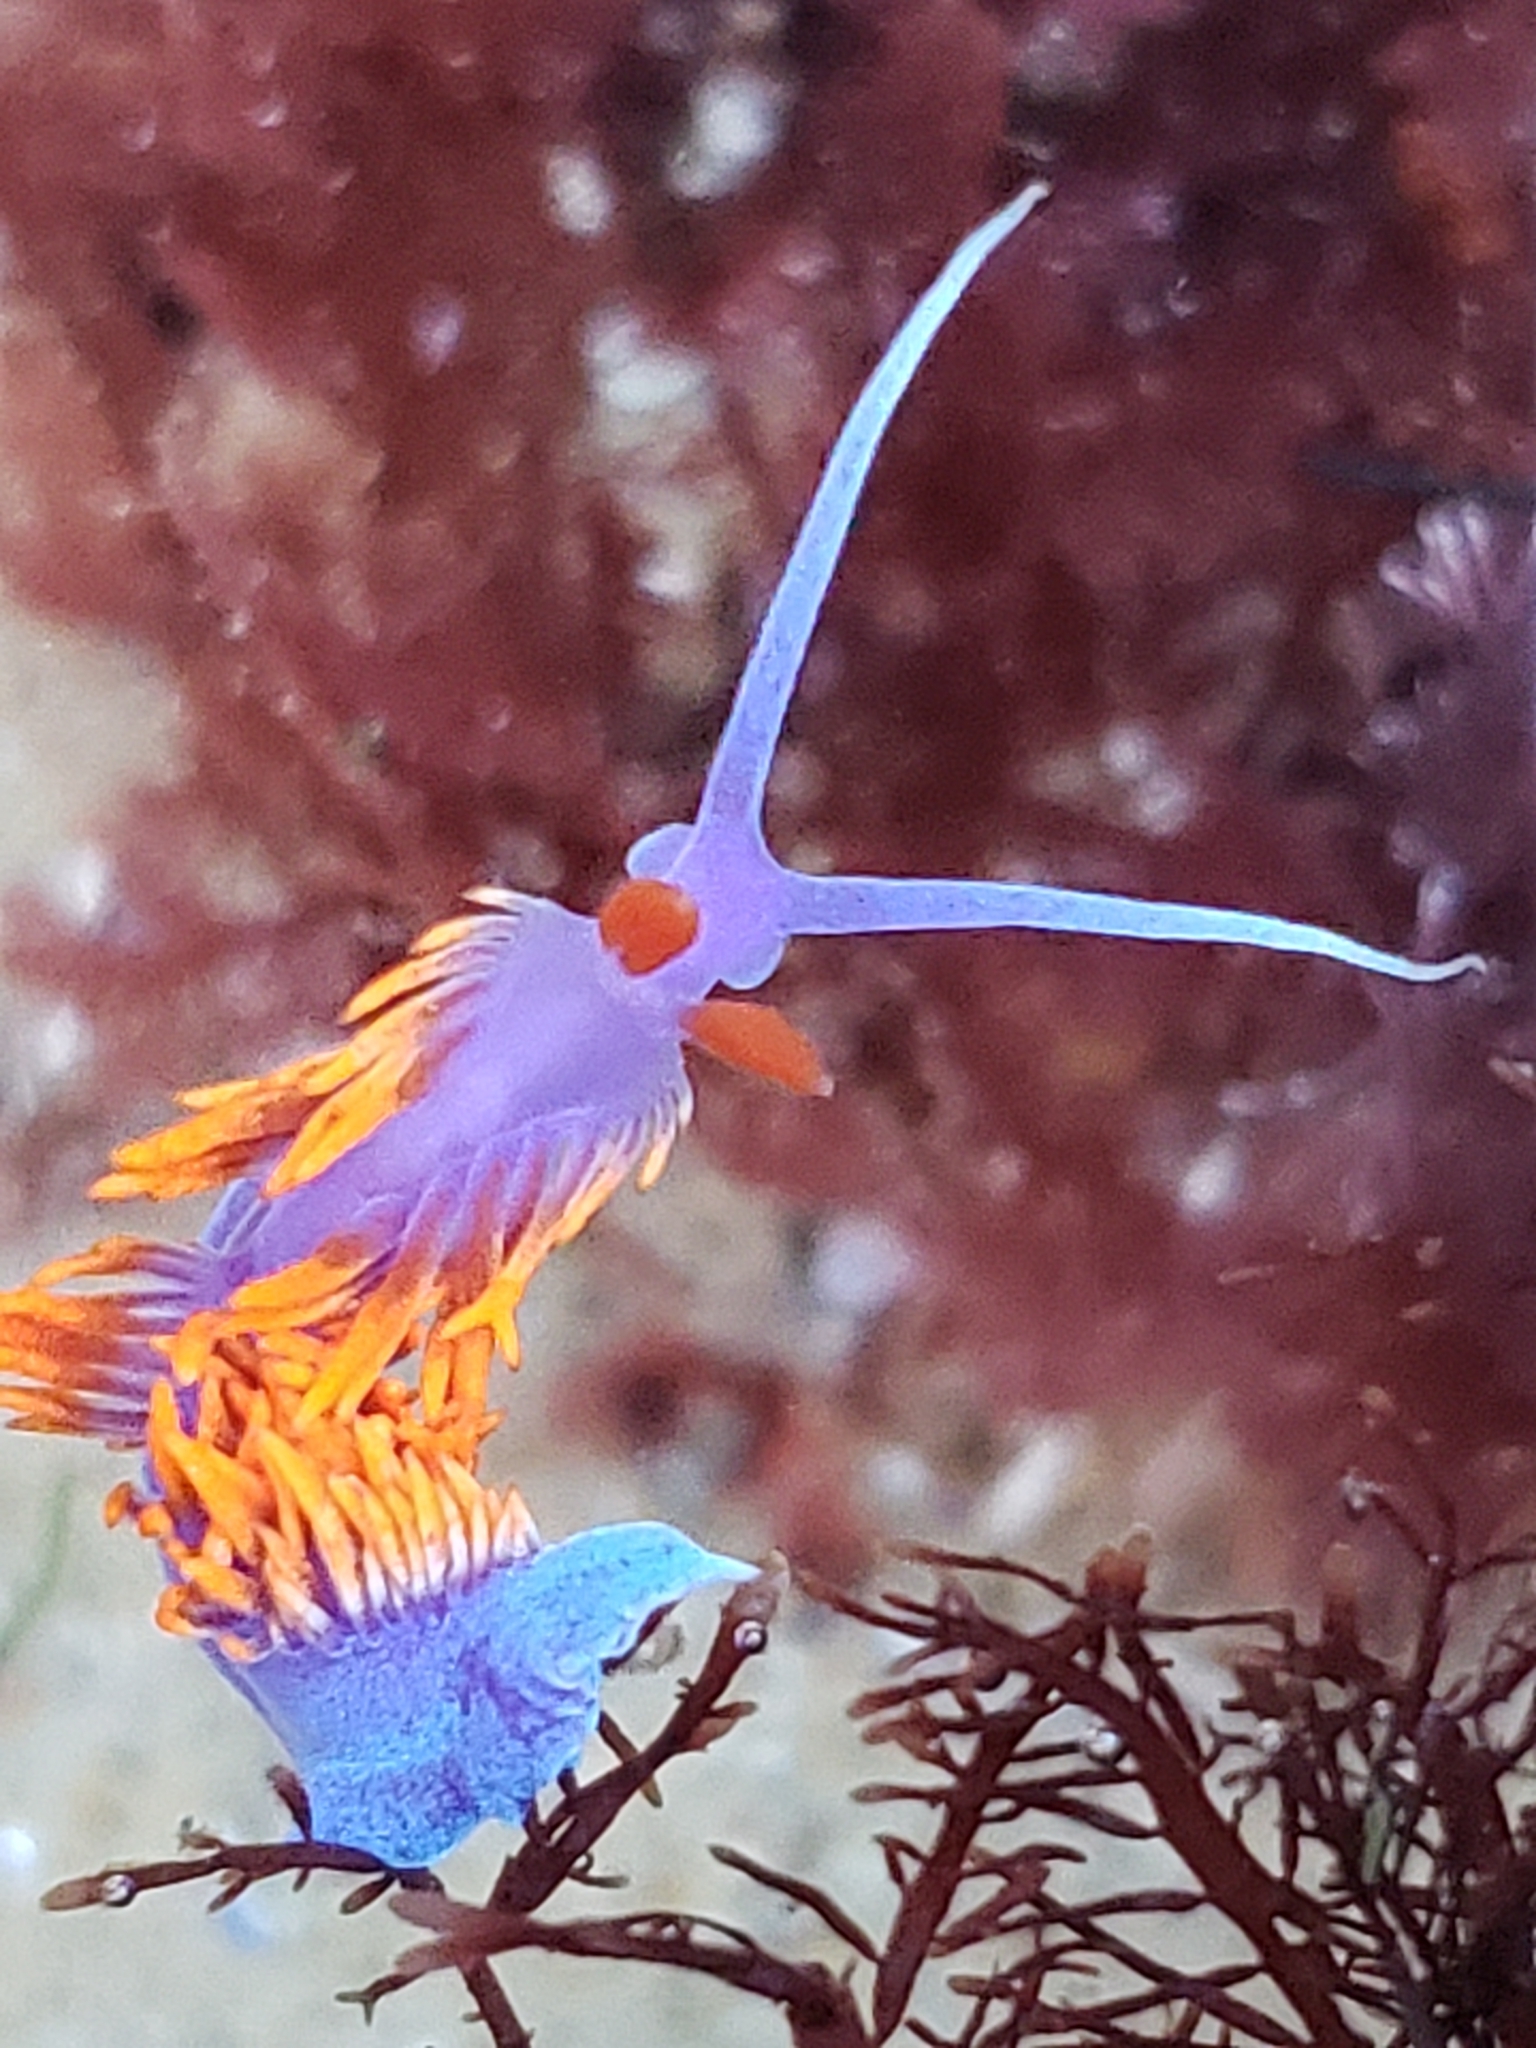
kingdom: Animalia
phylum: Mollusca
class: Gastropoda
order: Nudibranchia
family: Flabellinopsidae
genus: Flabellinopsis
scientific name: Flabellinopsis iodinea
